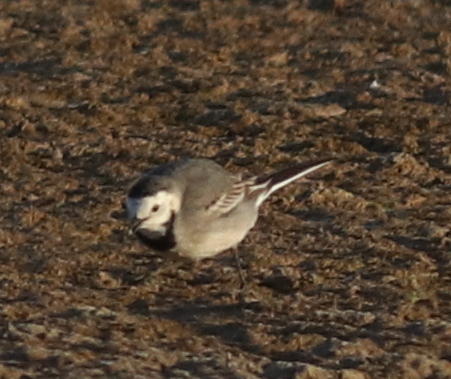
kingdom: Animalia
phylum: Chordata
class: Aves
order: Passeriformes
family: Motacillidae
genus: Motacilla
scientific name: Motacilla alba
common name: White wagtail
